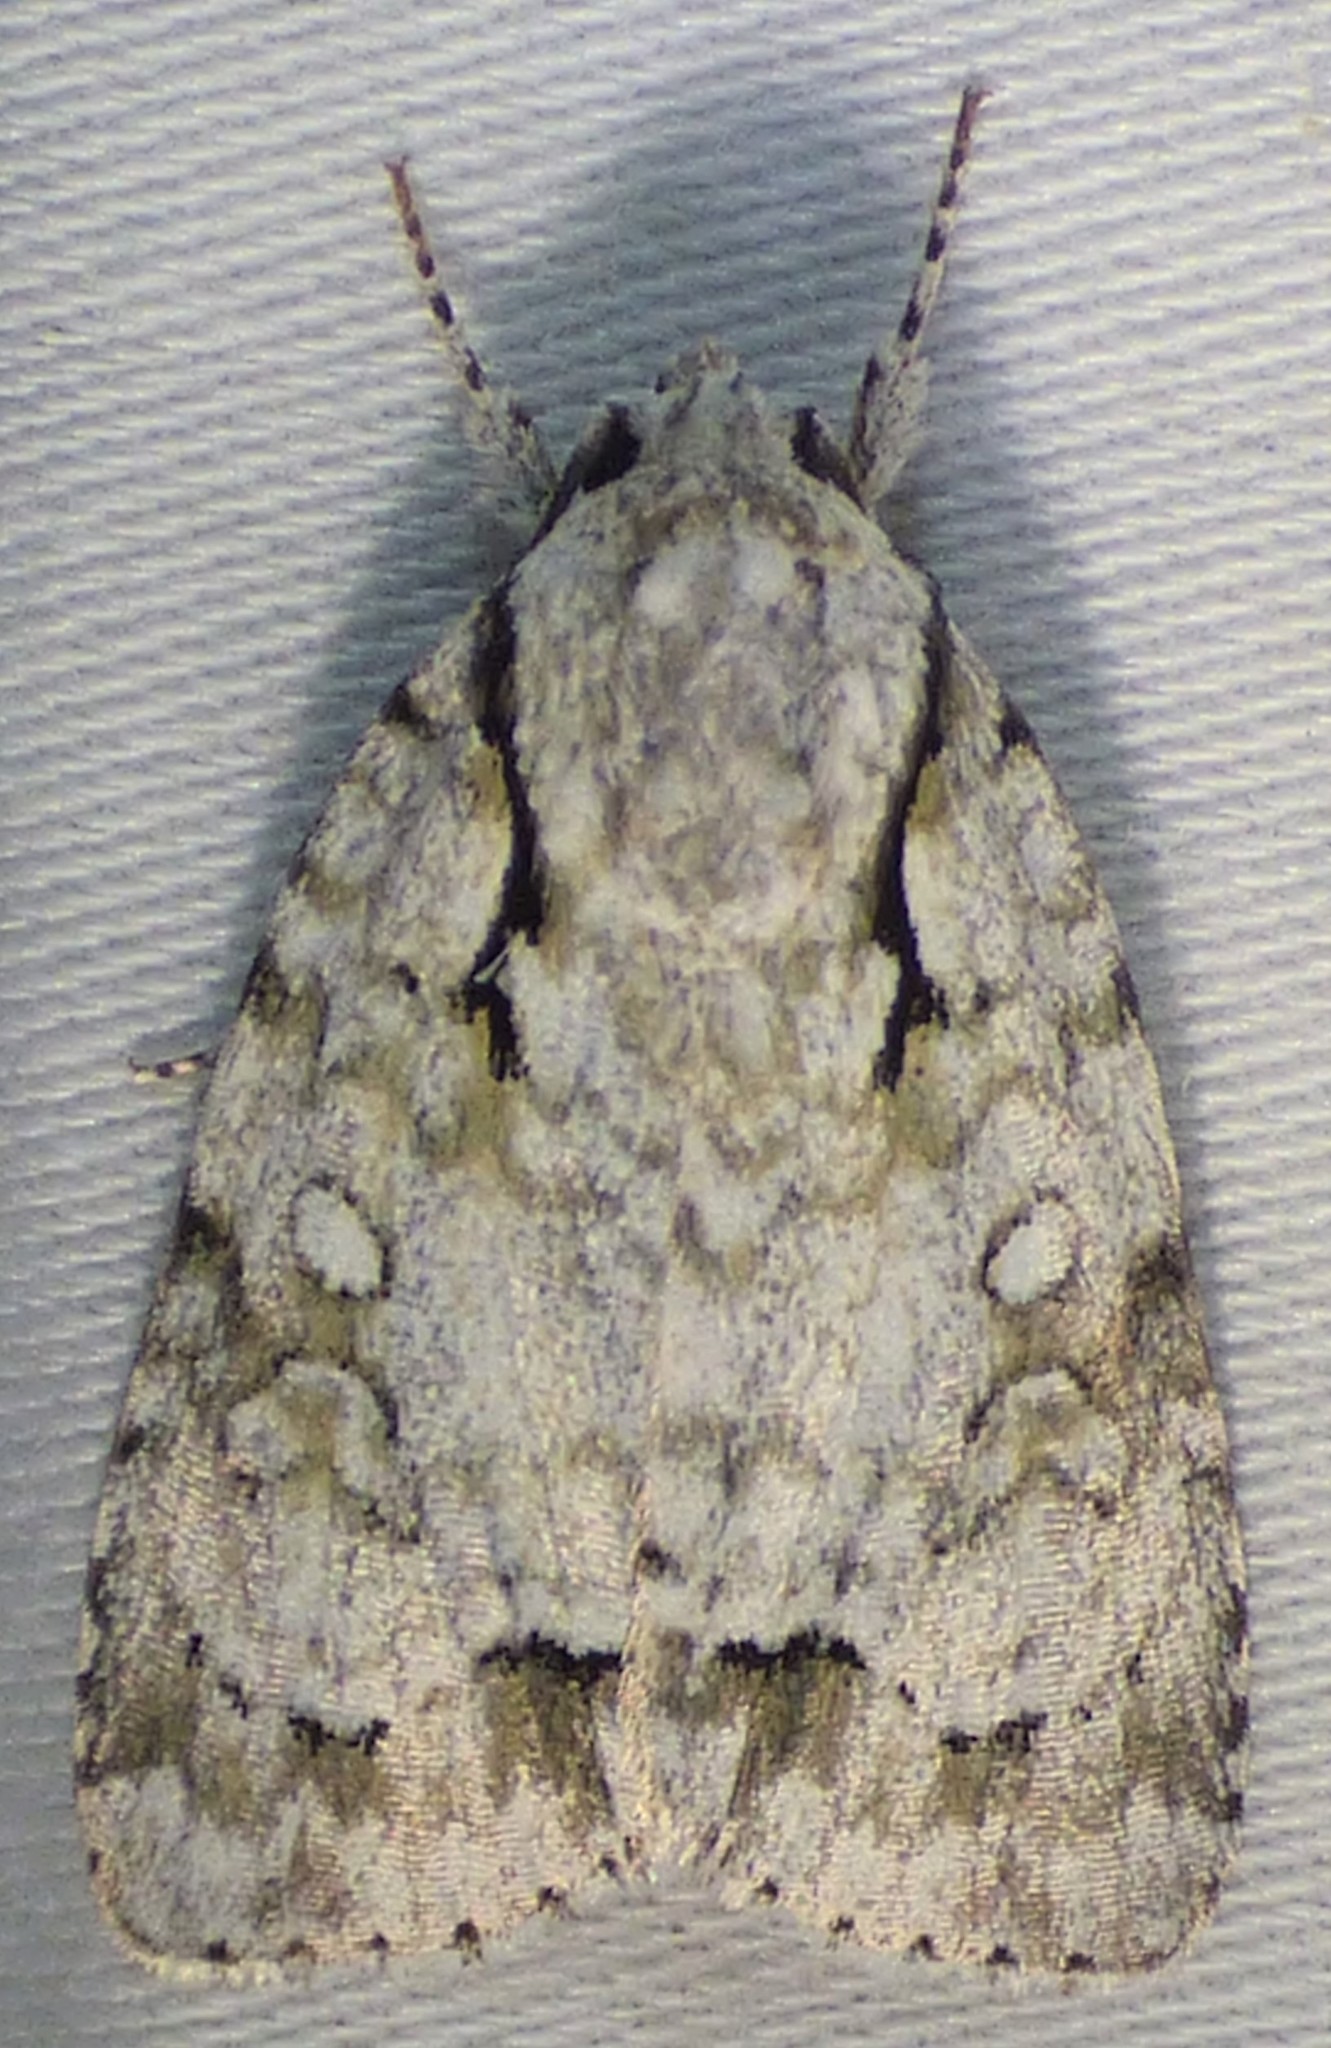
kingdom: Animalia
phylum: Arthropoda
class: Insecta
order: Lepidoptera
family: Noctuidae
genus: Acronicta
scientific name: Acronicta vinnula
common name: Delightful dagger
